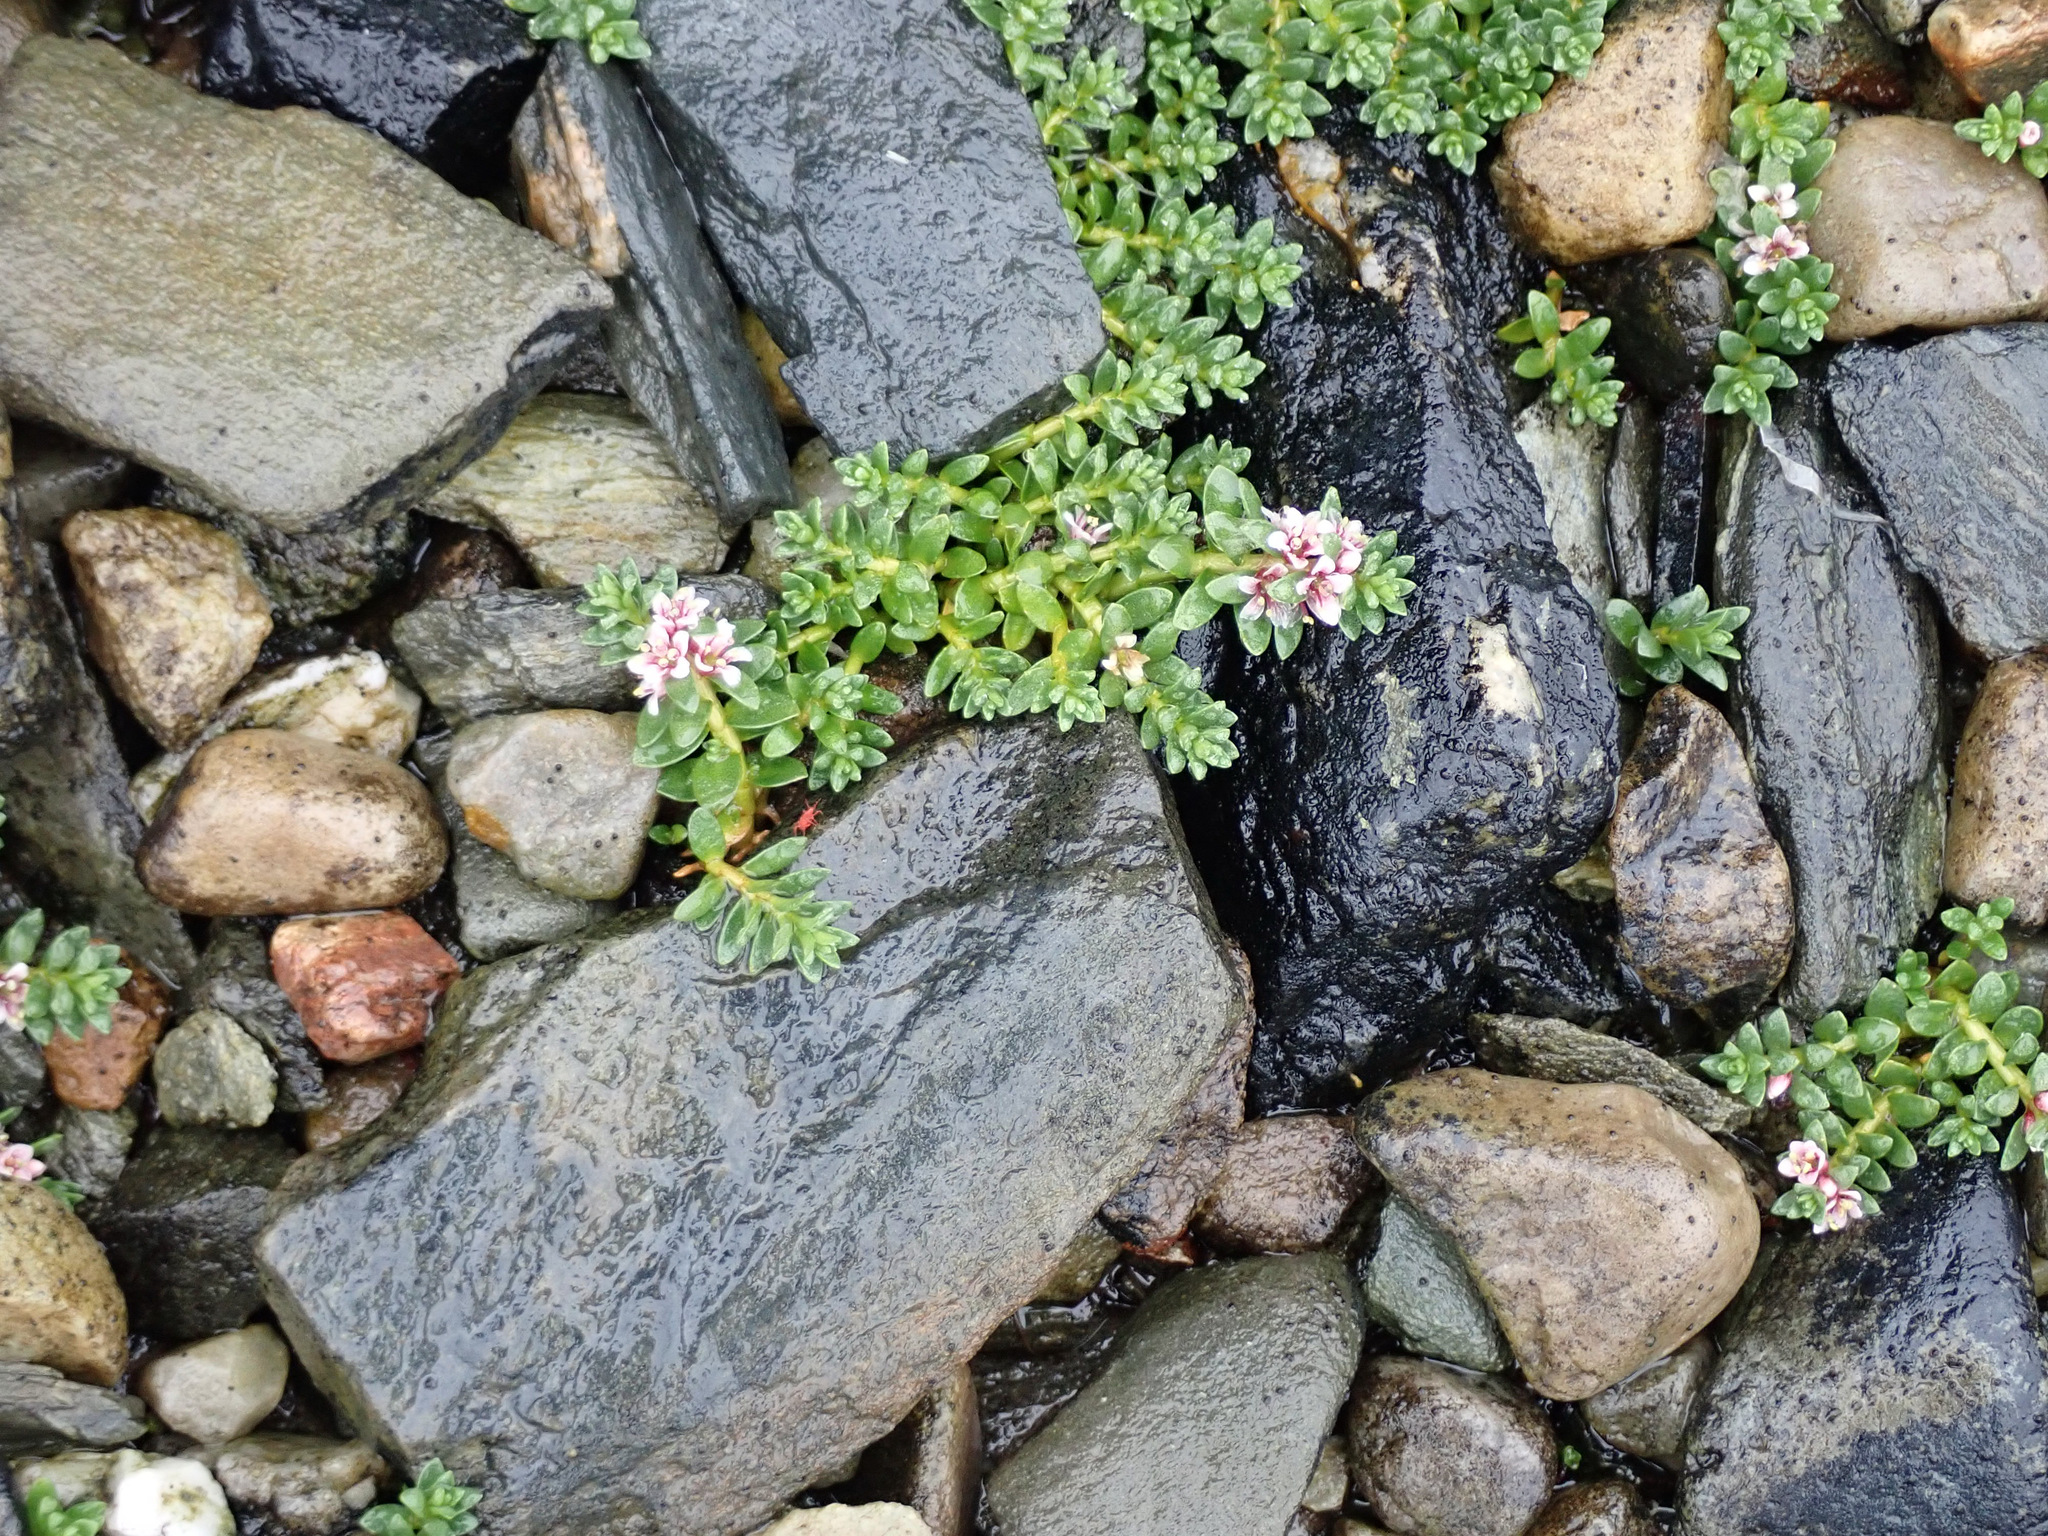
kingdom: Plantae
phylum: Tracheophyta
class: Magnoliopsida
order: Ericales
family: Primulaceae
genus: Lysimachia
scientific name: Lysimachia maritima
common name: Sea milkwort
